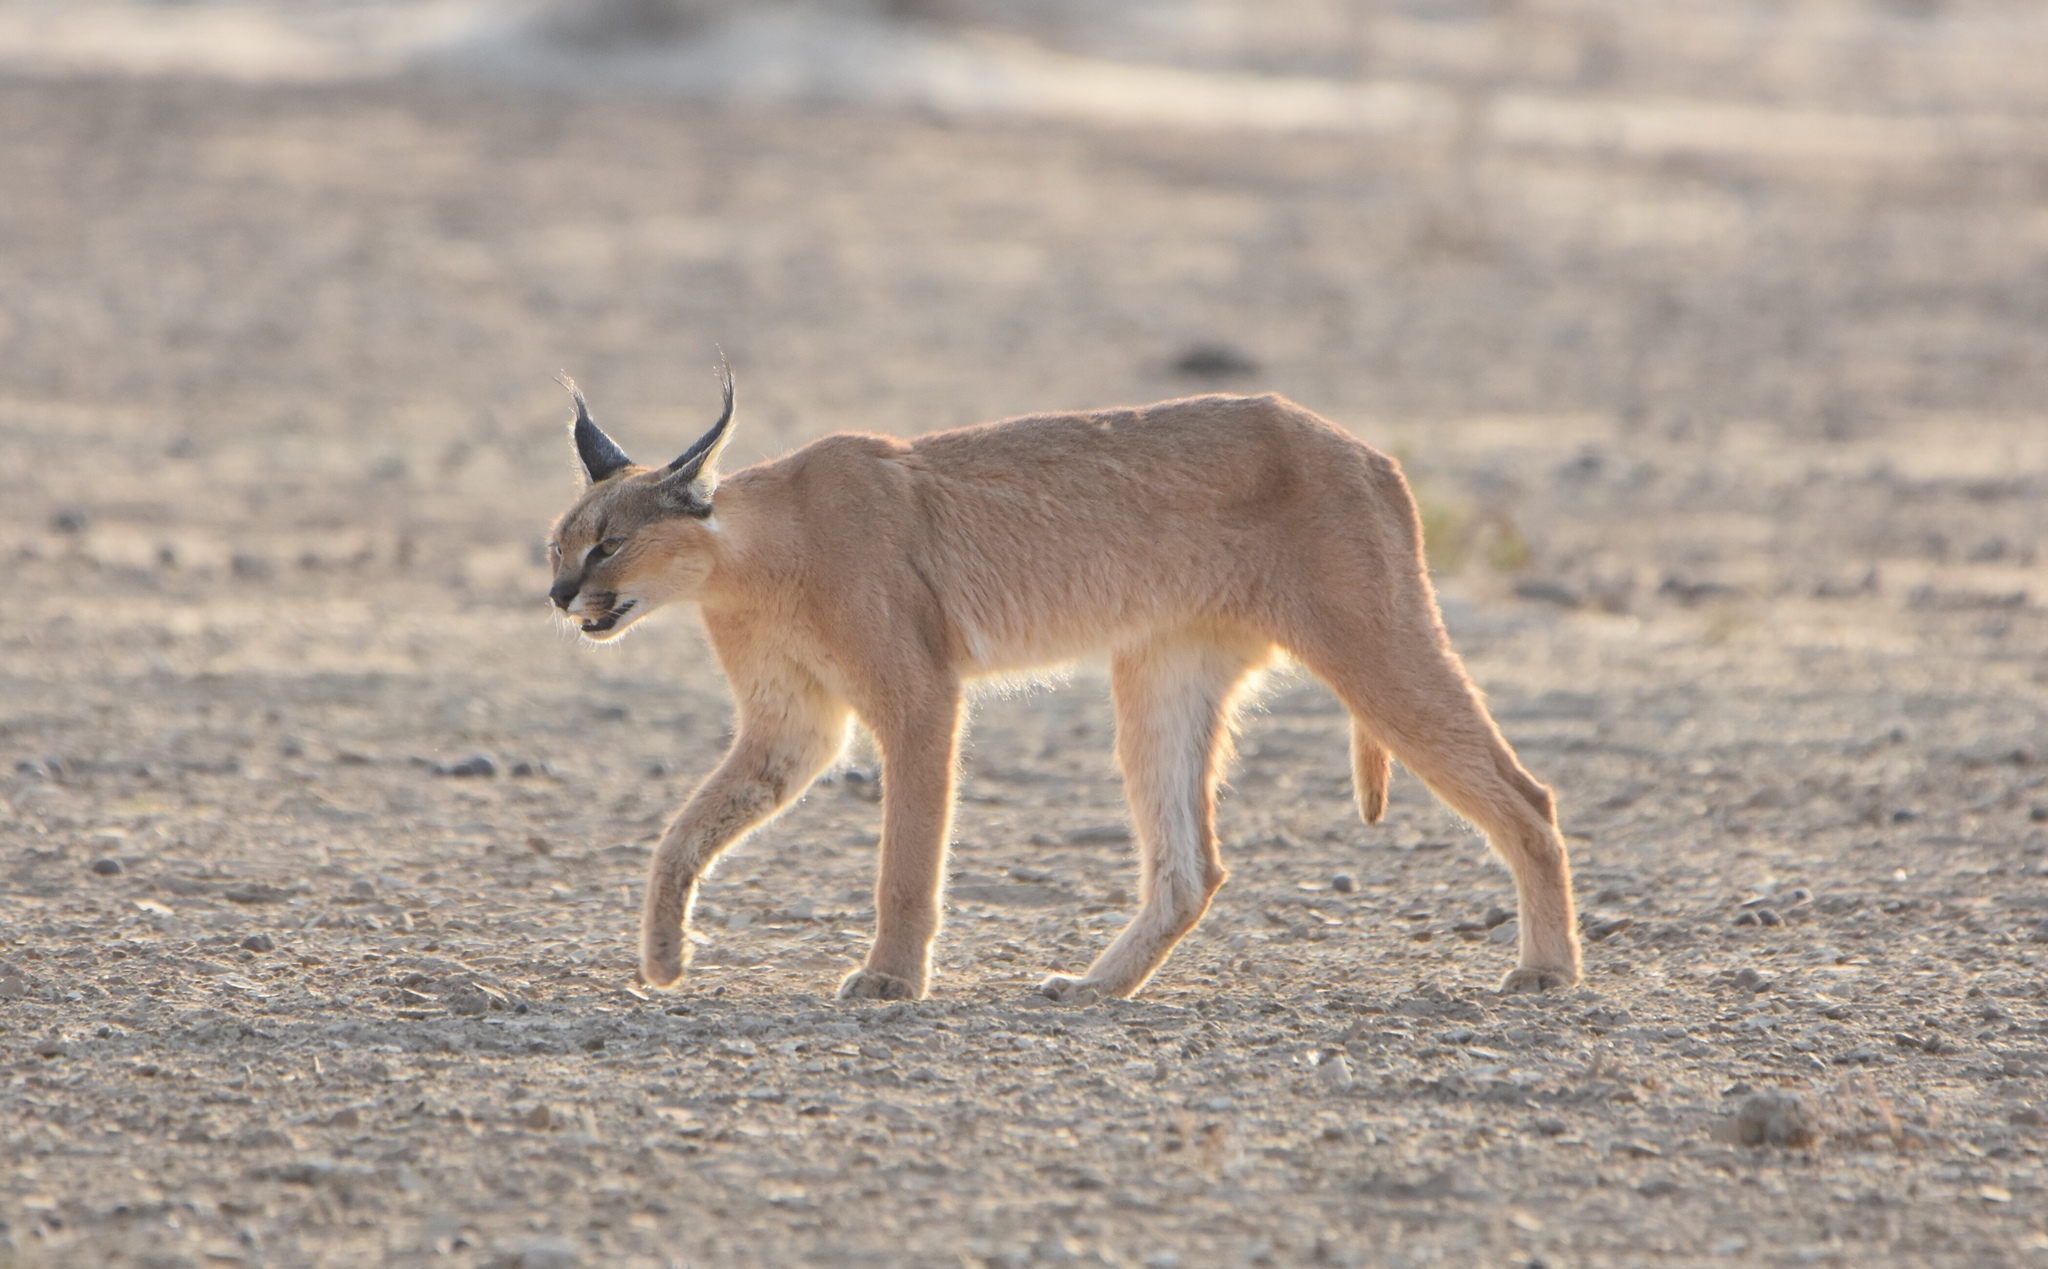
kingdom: Animalia
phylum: Chordata
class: Mammalia
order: Carnivora
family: Felidae
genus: Caracal
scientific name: Caracal caracal
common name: Caracal
